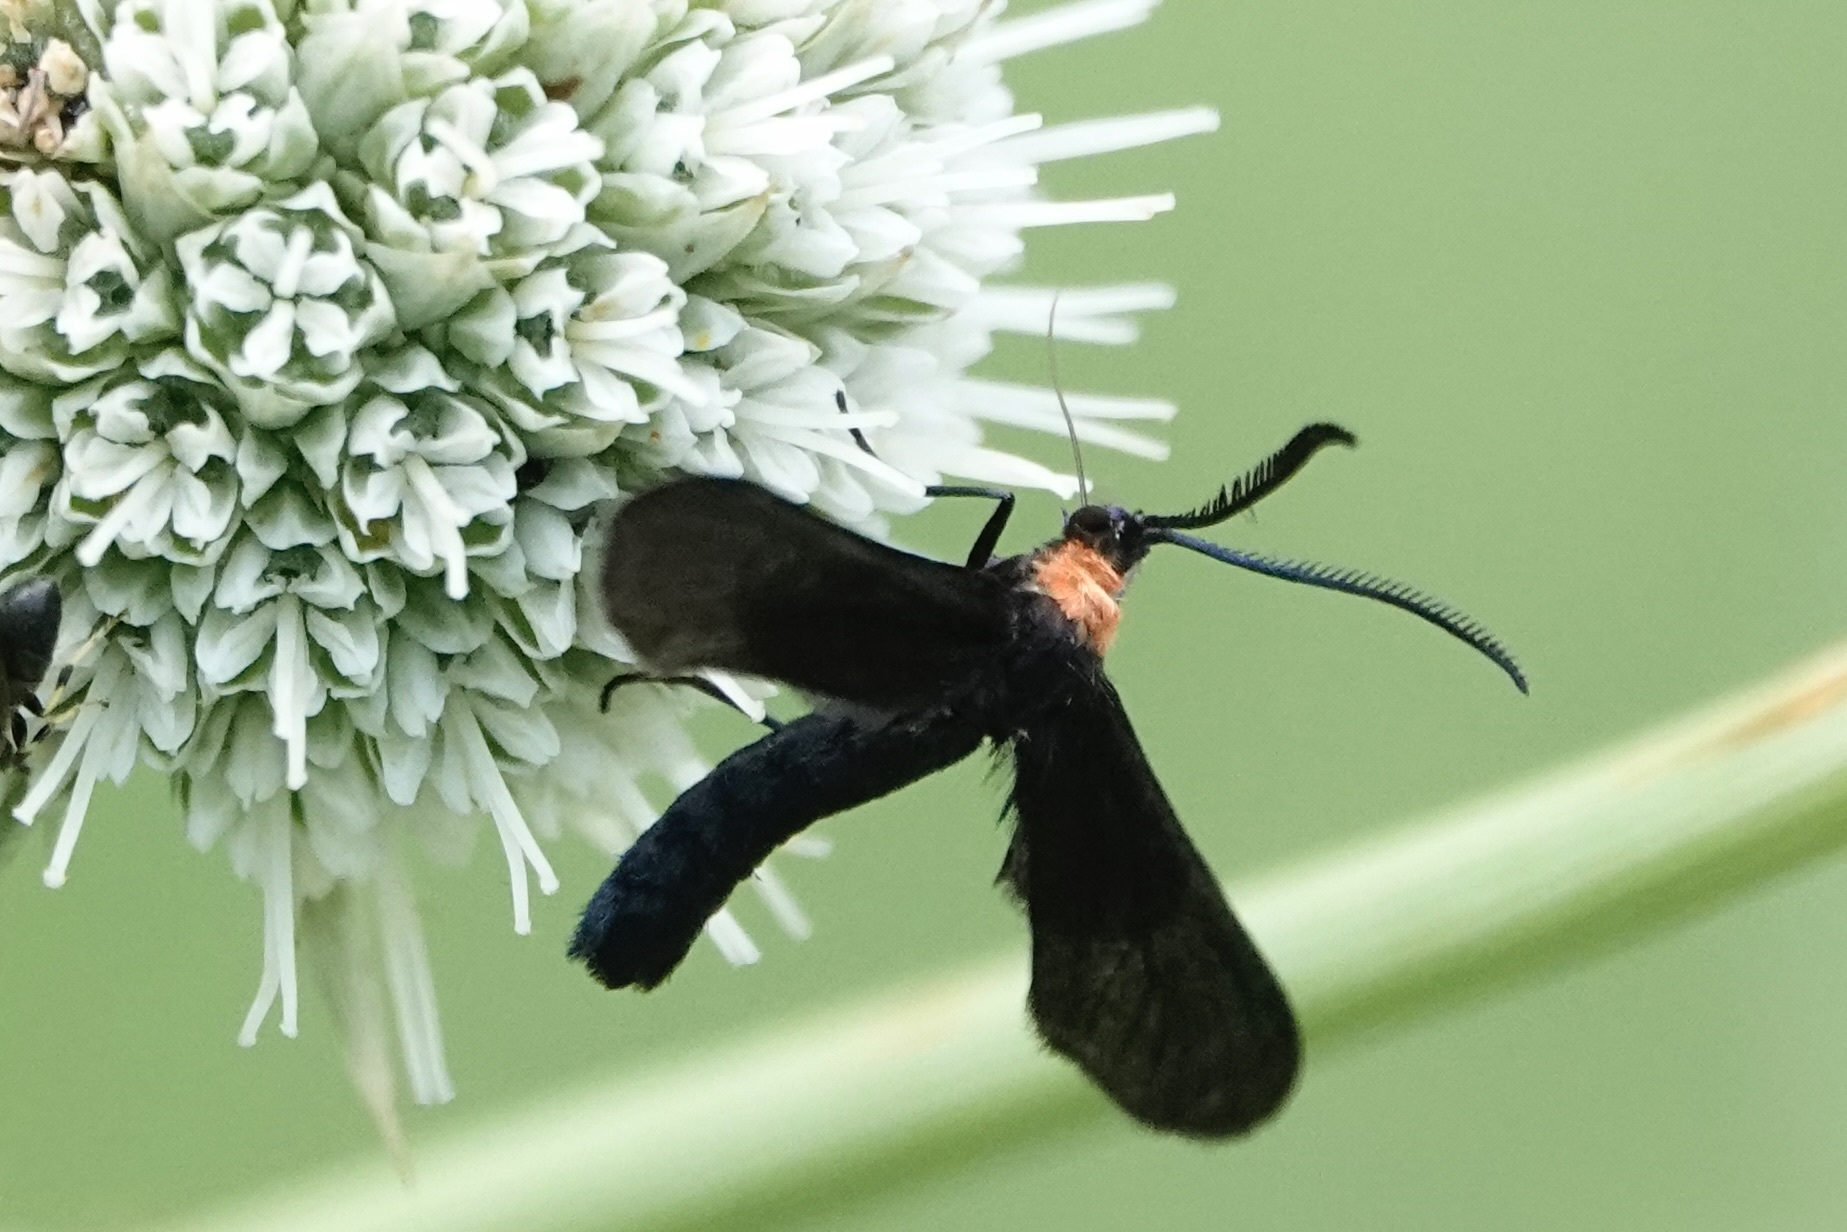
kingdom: Animalia
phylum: Arthropoda
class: Insecta
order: Lepidoptera
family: Zygaenidae
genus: Harrisina
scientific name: Harrisina americana
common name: Grapeleaf skeletonizer moth
